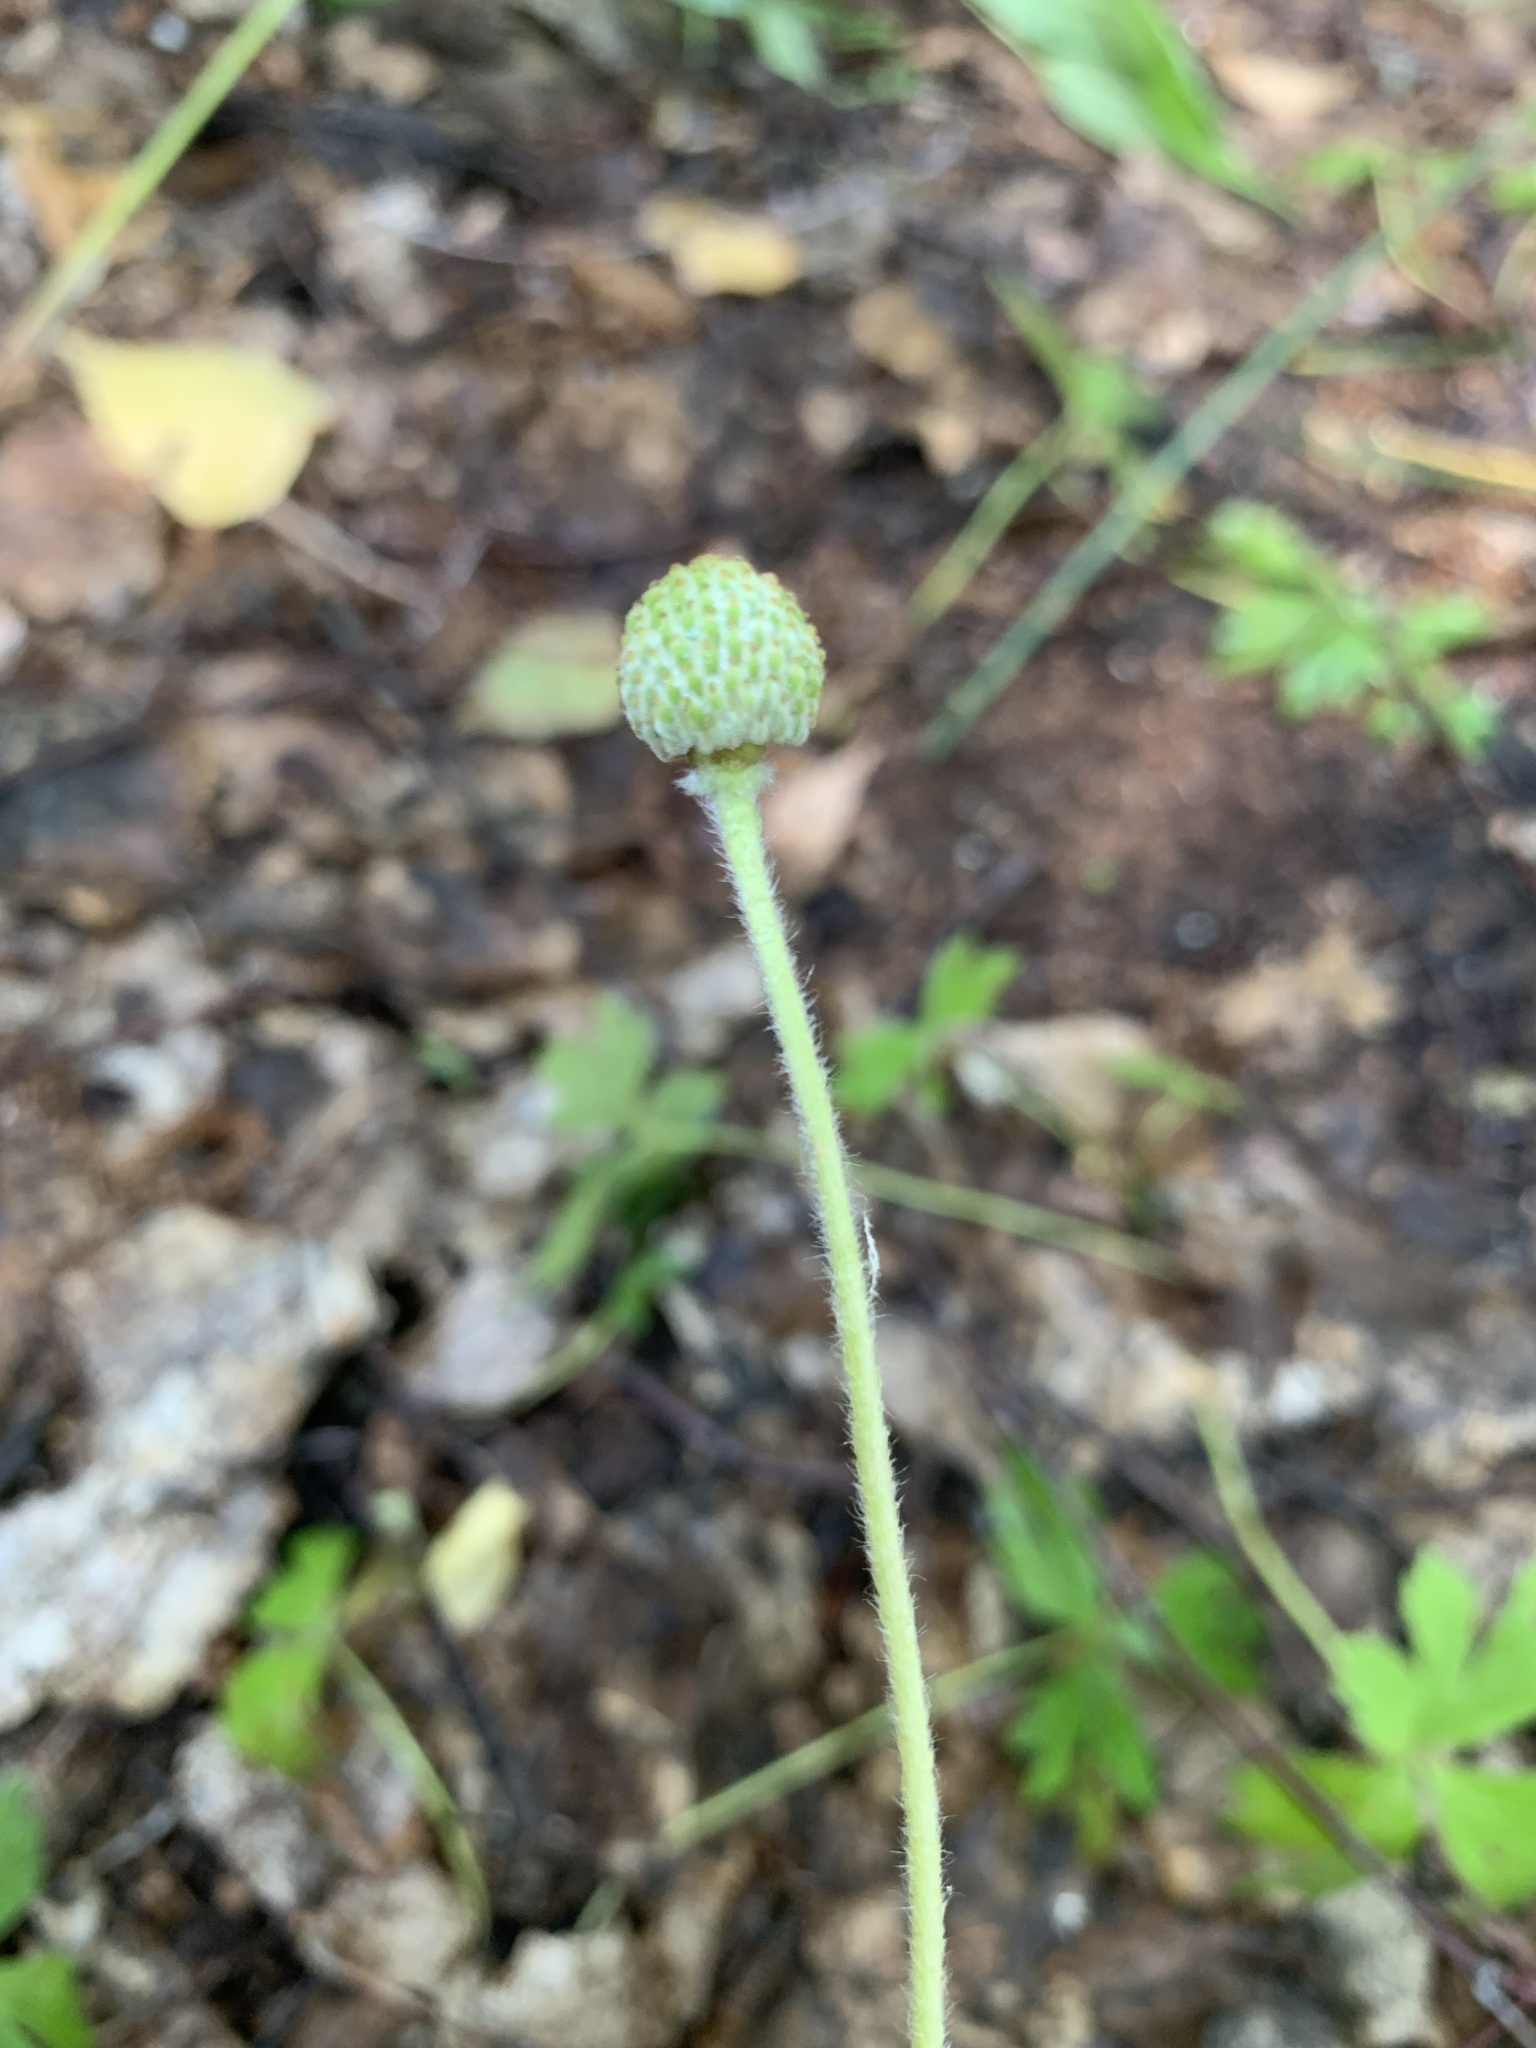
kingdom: Plantae
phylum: Tracheophyta
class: Magnoliopsida
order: Ranunculales
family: Ranunculaceae
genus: Anemone
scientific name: Anemone sylvestris
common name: Snowdrop anemone
